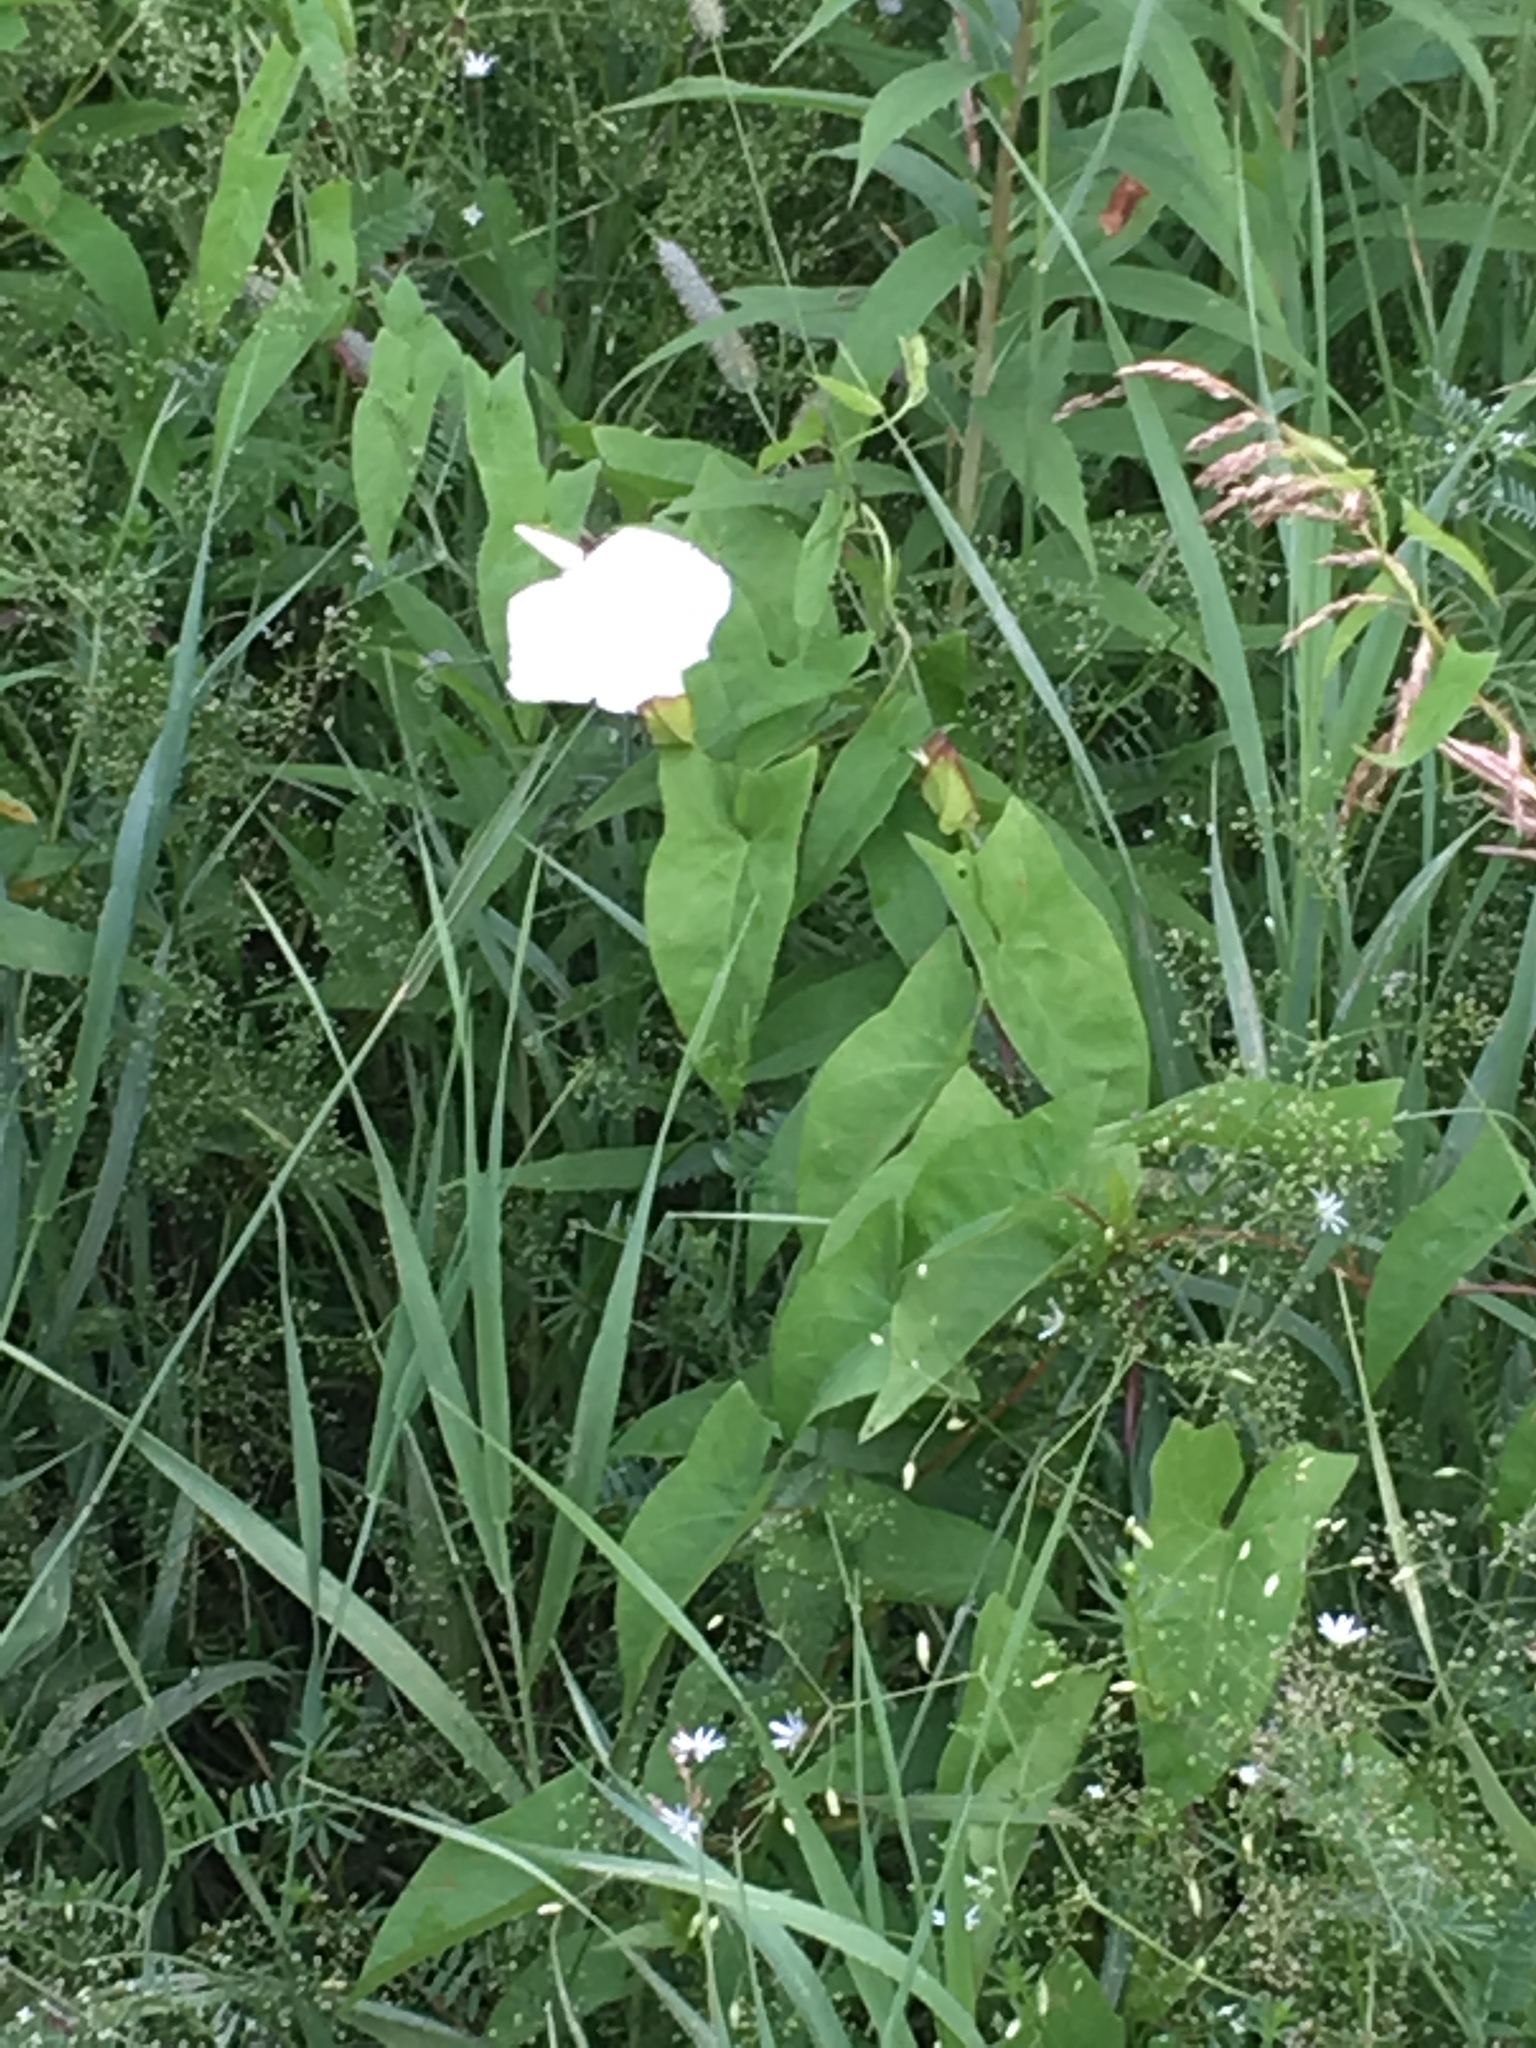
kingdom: Plantae
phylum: Tracheophyta
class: Magnoliopsida
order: Solanales
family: Convolvulaceae
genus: Calystegia
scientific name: Calystegia sepium
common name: Hedge bindweed
